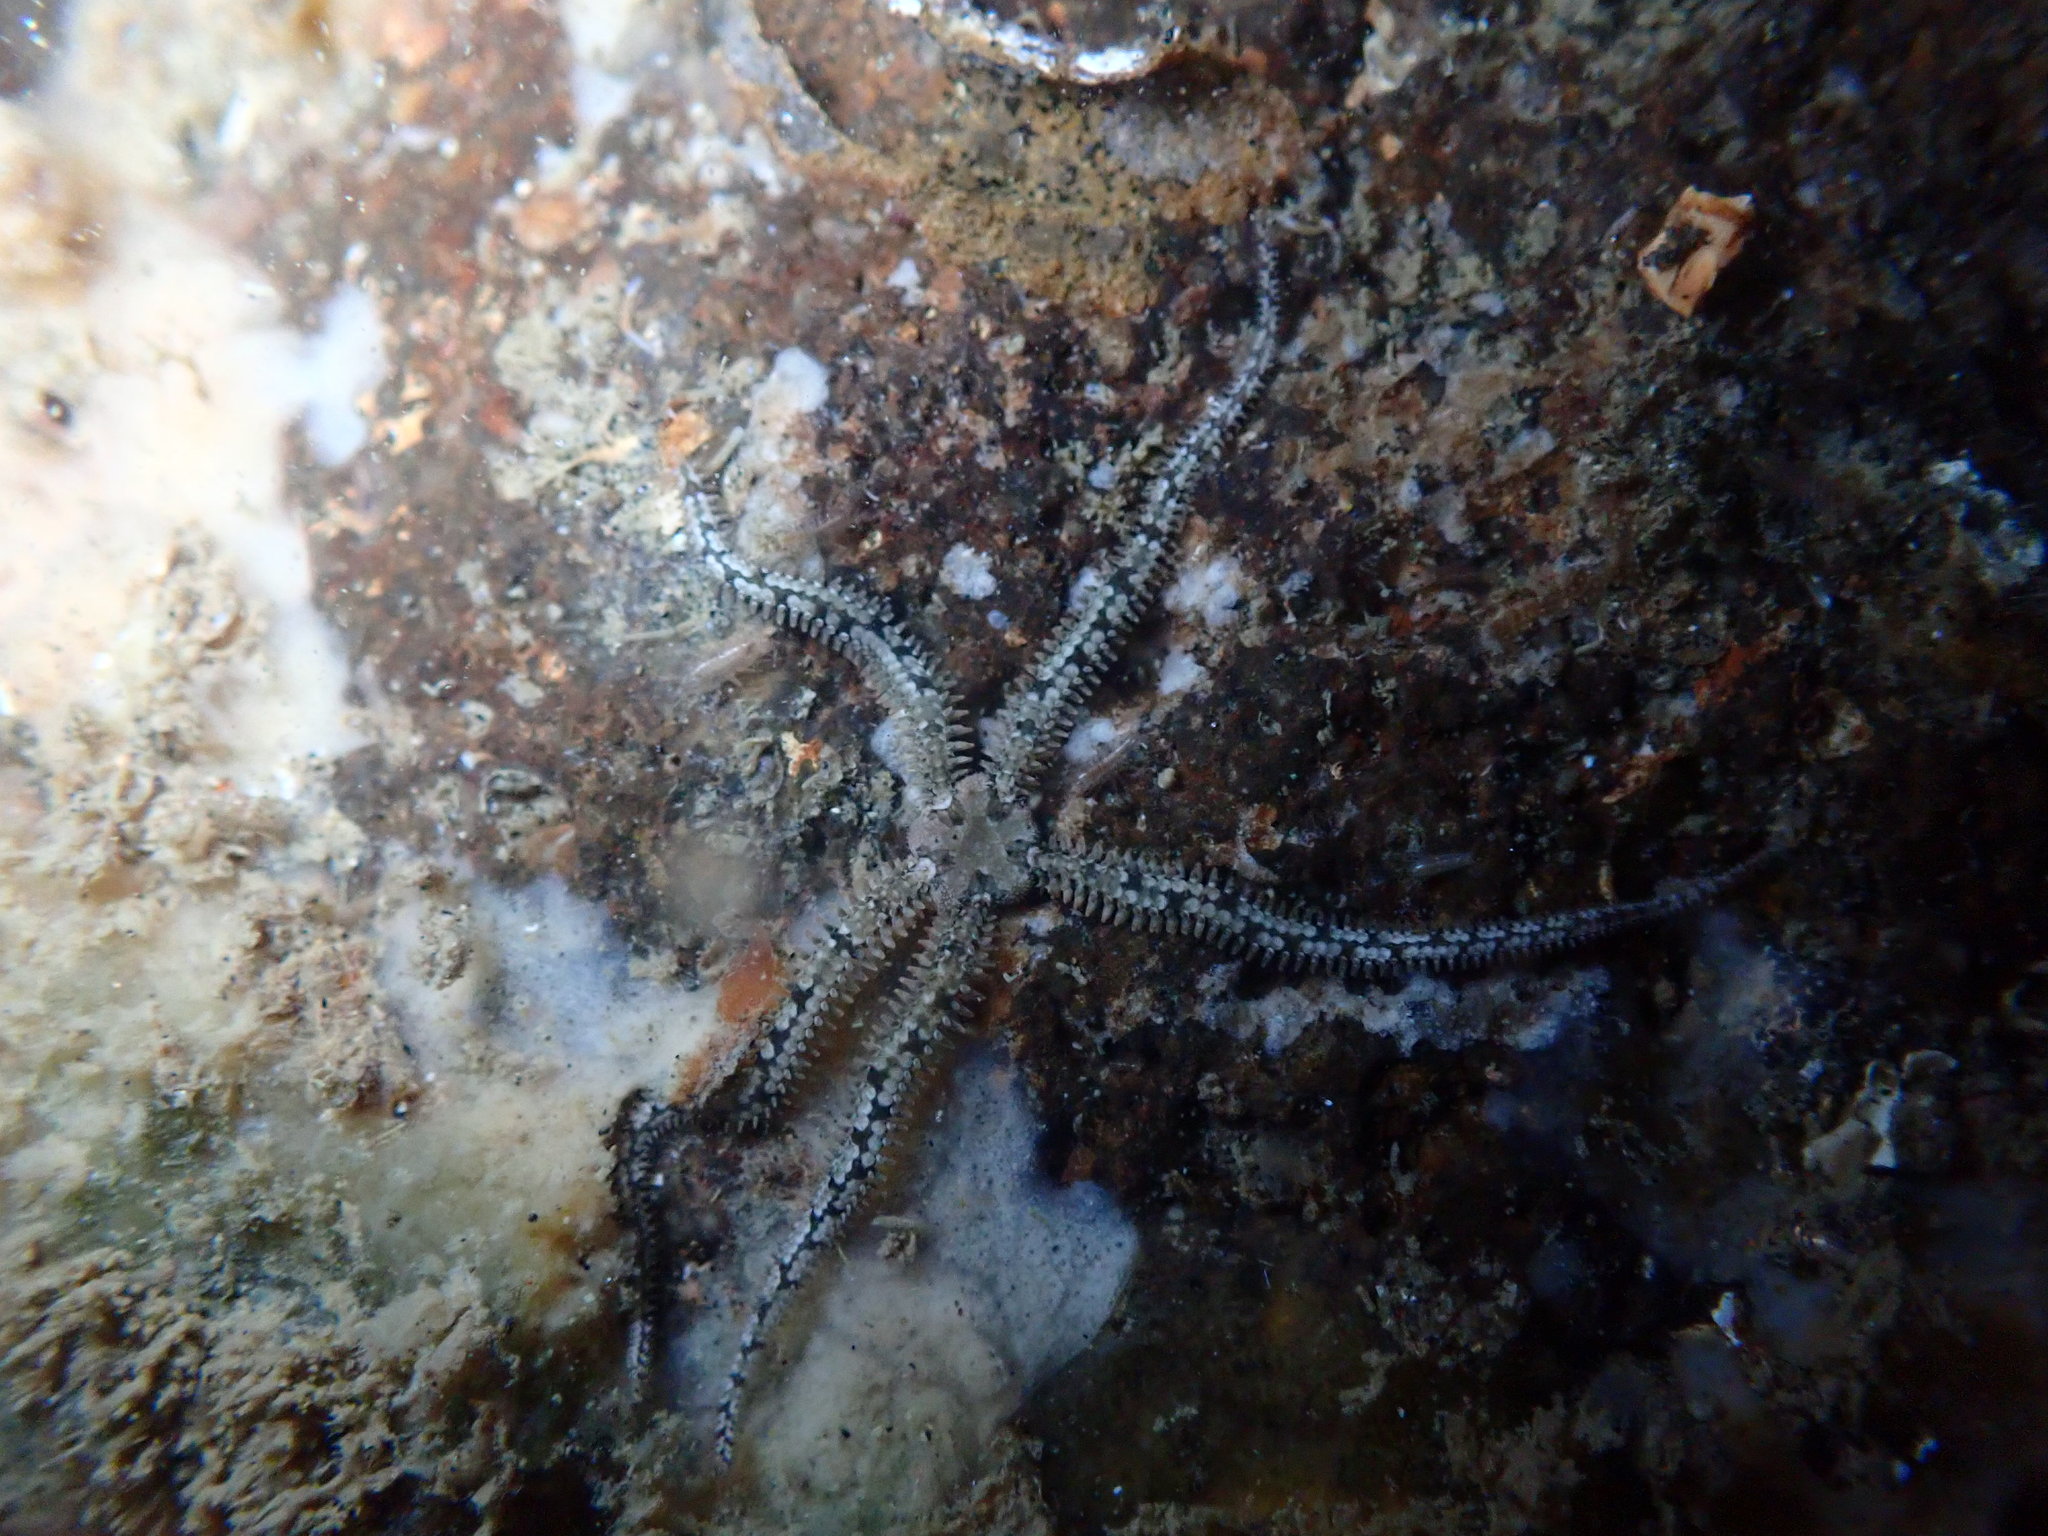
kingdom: Animalia
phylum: Echinodermata
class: Ophiuroidea
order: Amphilepidida
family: Ophiactidae
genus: Ophiactis
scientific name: Ophiactis resiliens
